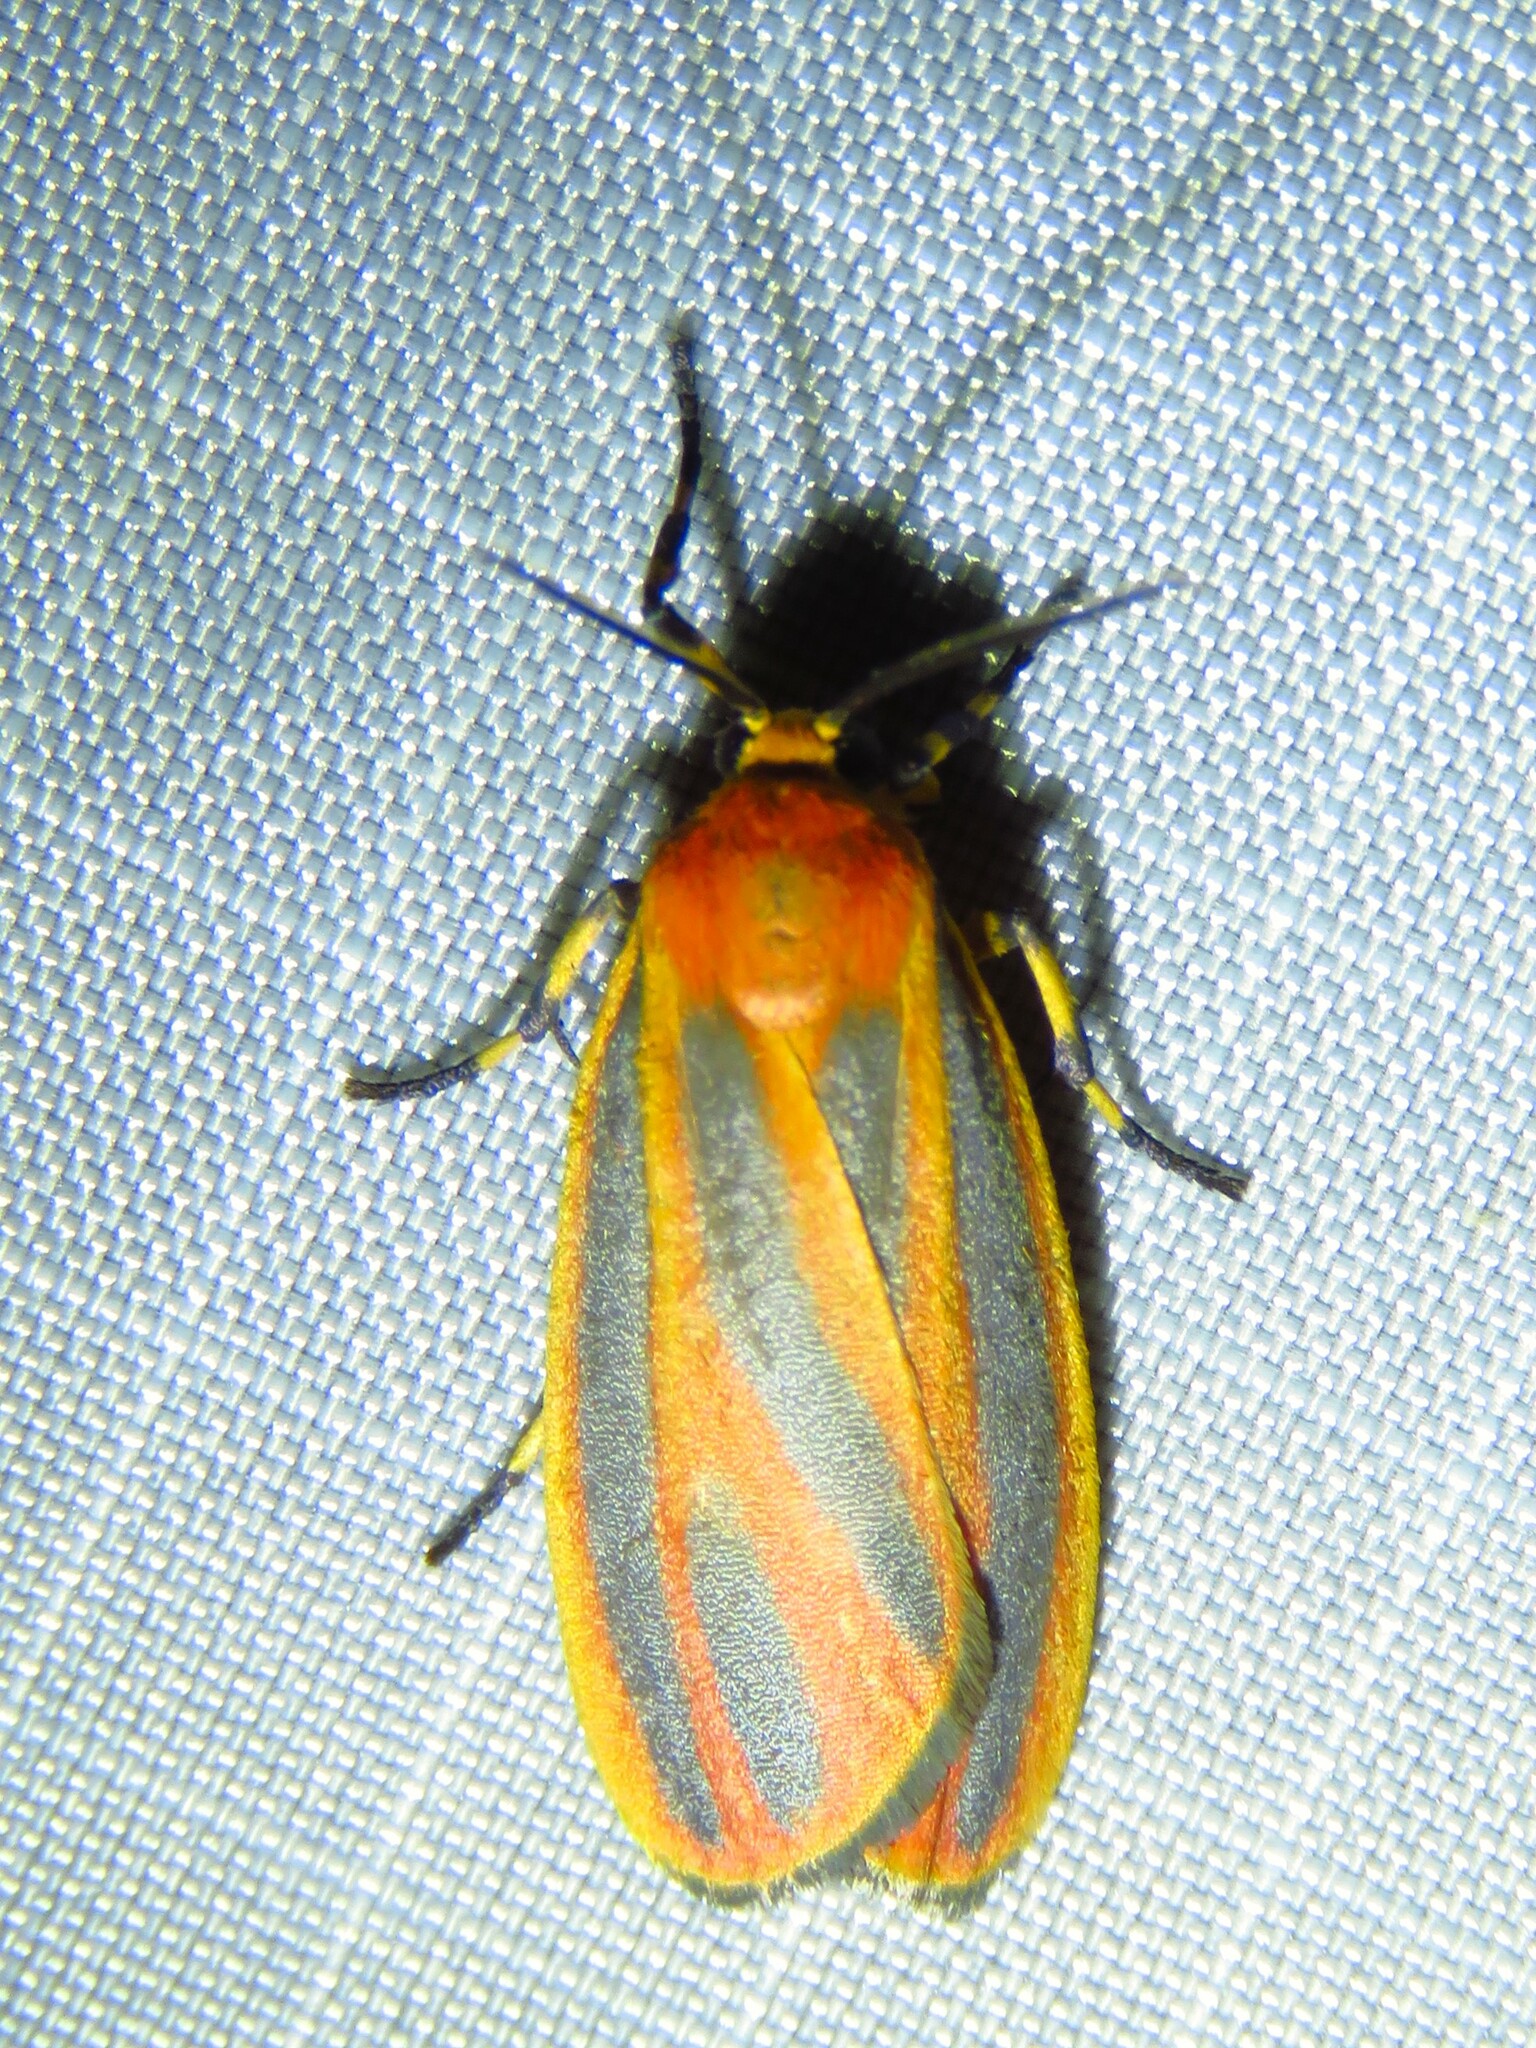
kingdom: Animalia
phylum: Arthropoda
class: Insecta
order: Lepidoptera
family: Erebidae
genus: Hypoprepia
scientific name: Hypoprepia fucosa
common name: Painted lichen moth
